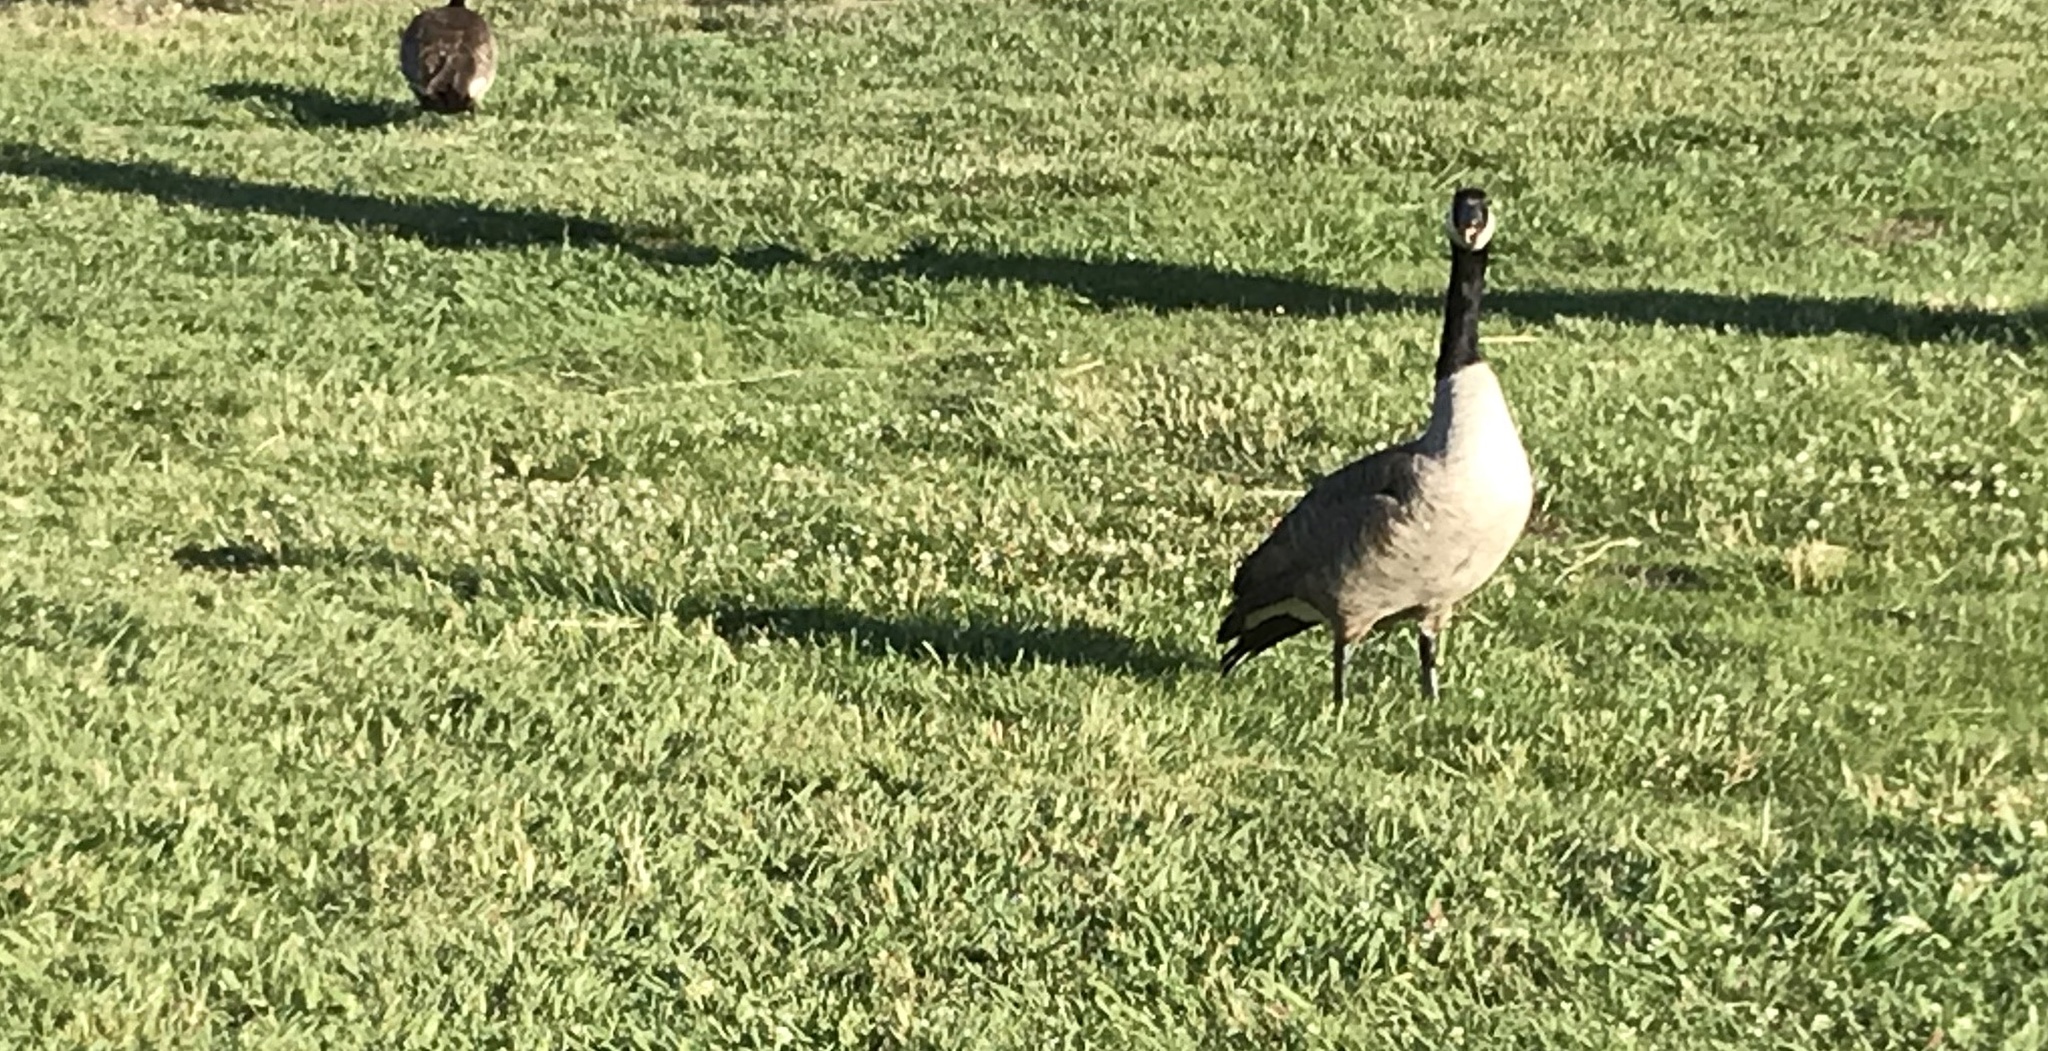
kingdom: Animalia
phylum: Chordata
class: Aves
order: Anseriformes
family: Anatidae
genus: Branta
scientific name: Branta canadensis
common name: Canada goose
